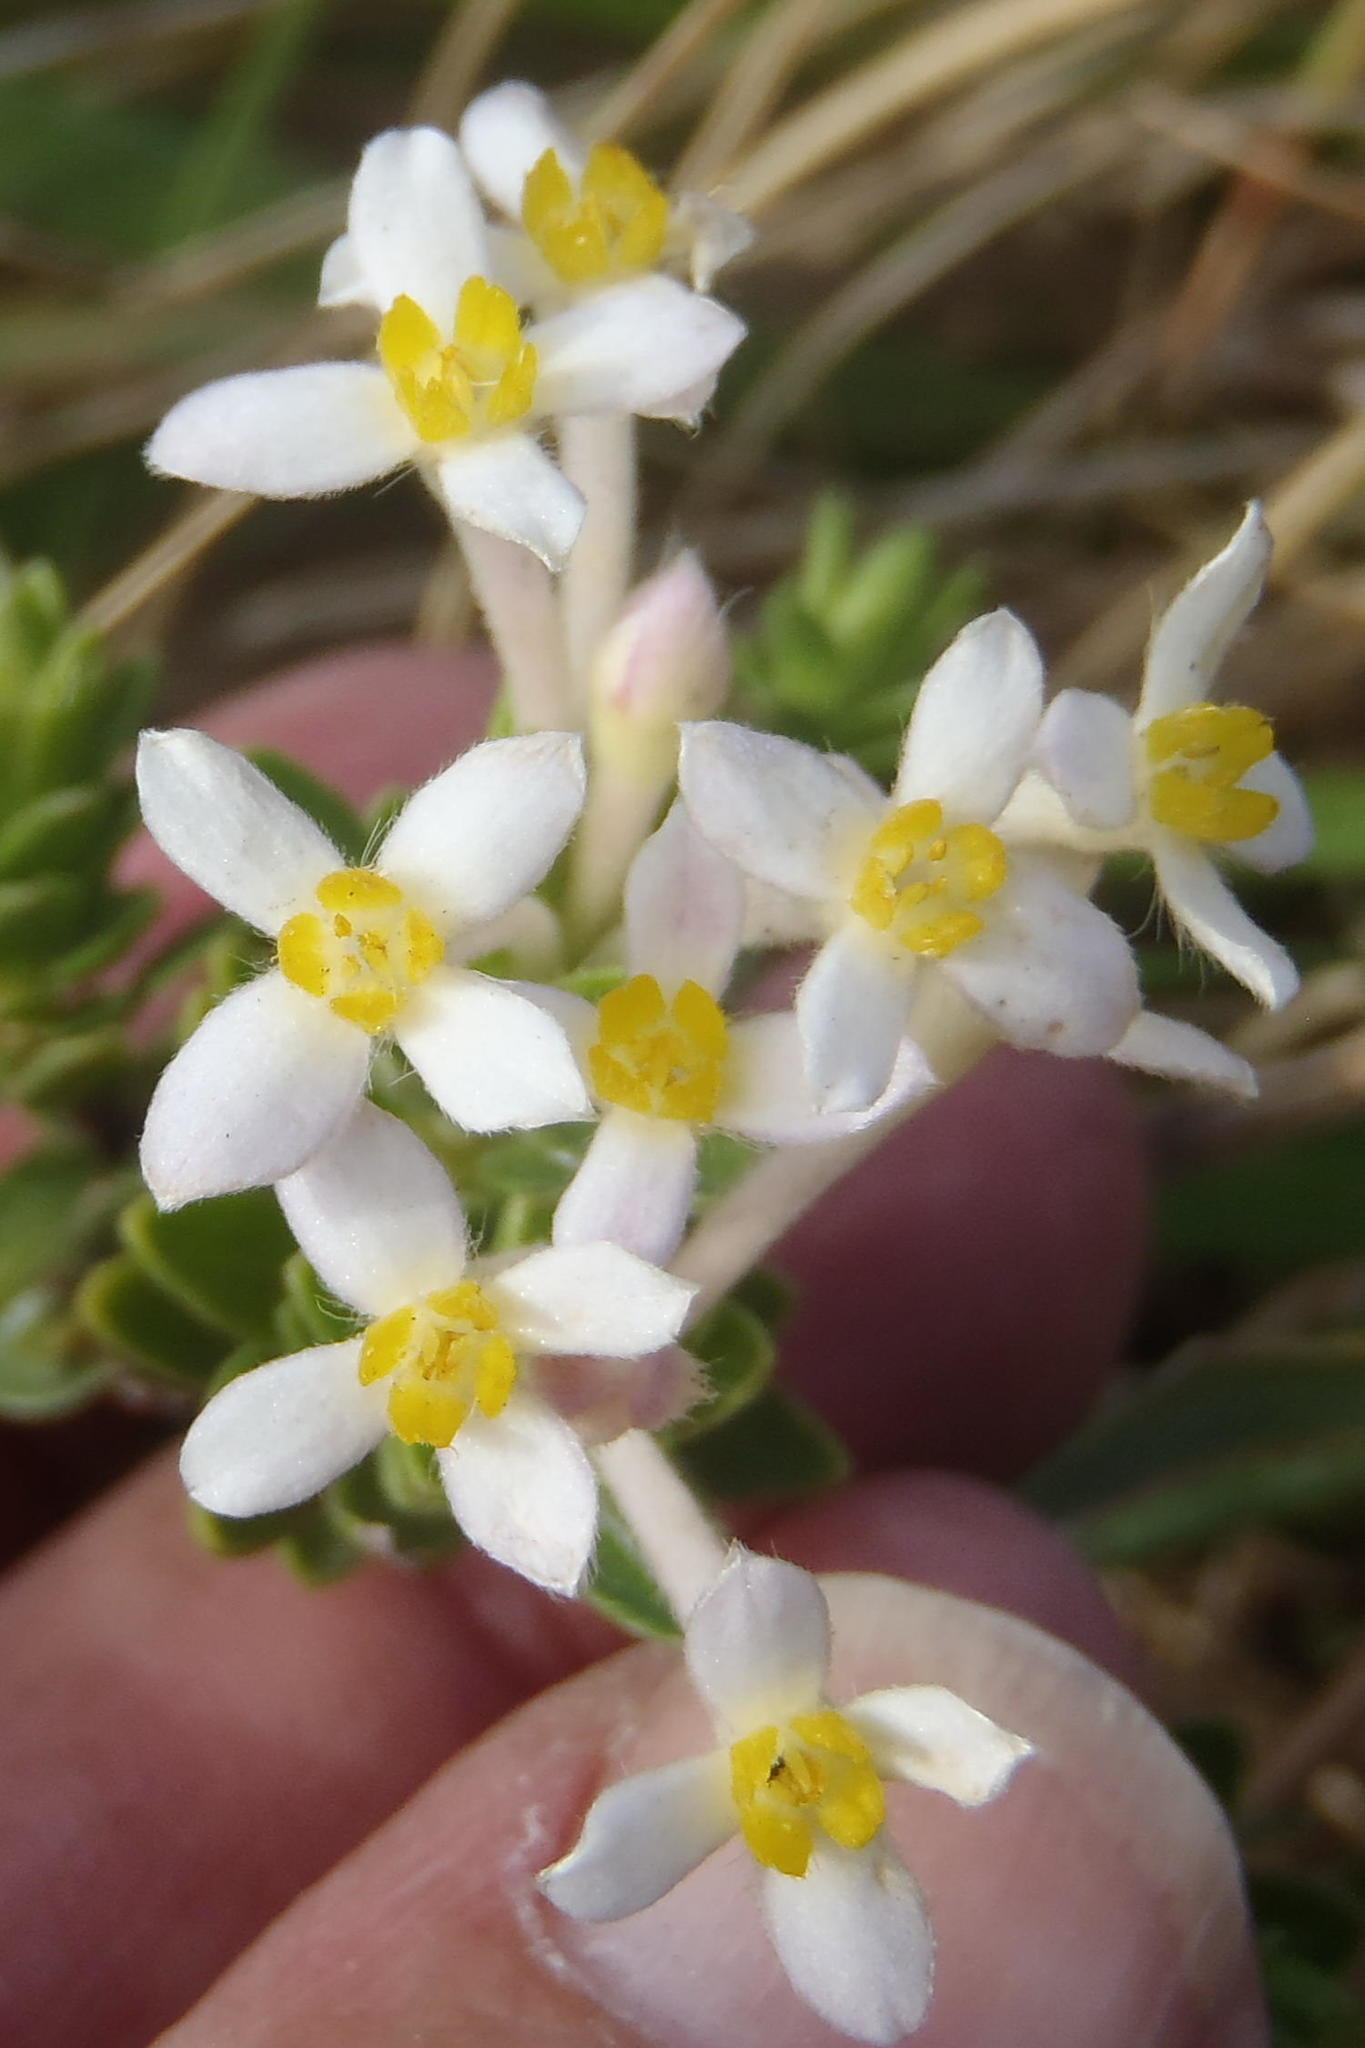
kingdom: Plantae
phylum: Tracheophyta
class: Magnoliopsida
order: Malvales
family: Thymelaeaceae
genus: Gnidia
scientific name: Gnidia tomentosa
